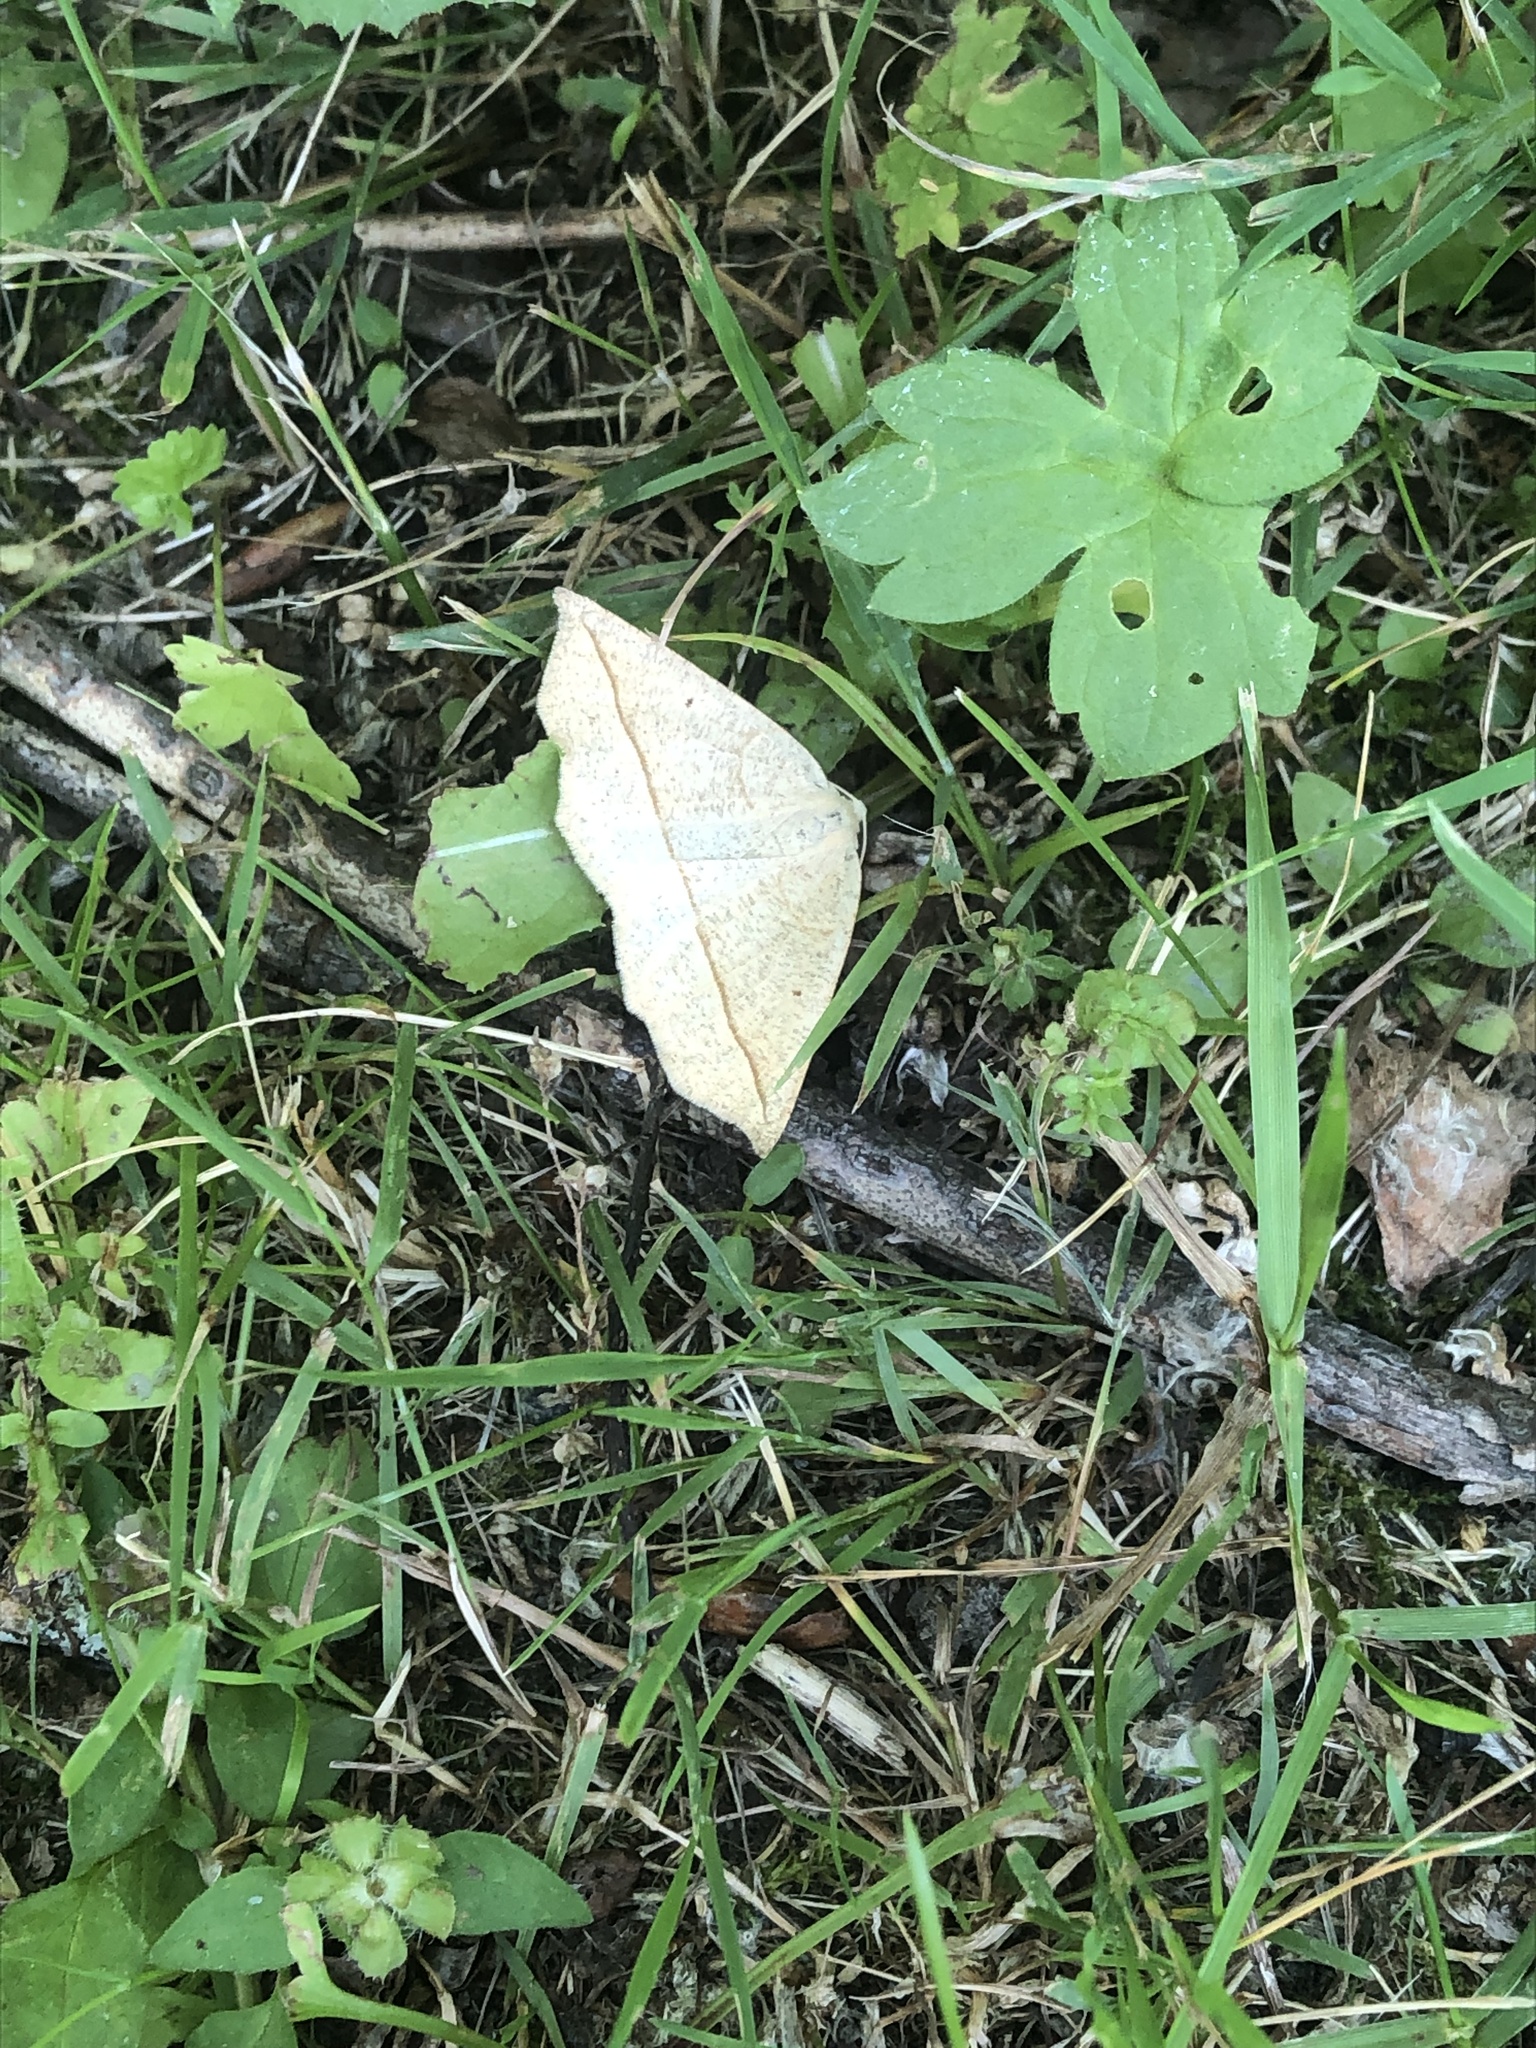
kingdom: Animalia
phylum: Arthropoda
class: Insecta
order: Lepidoptera
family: Geometridae
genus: Eusarca
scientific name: Eusarca confusaria
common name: Confused eusarca
